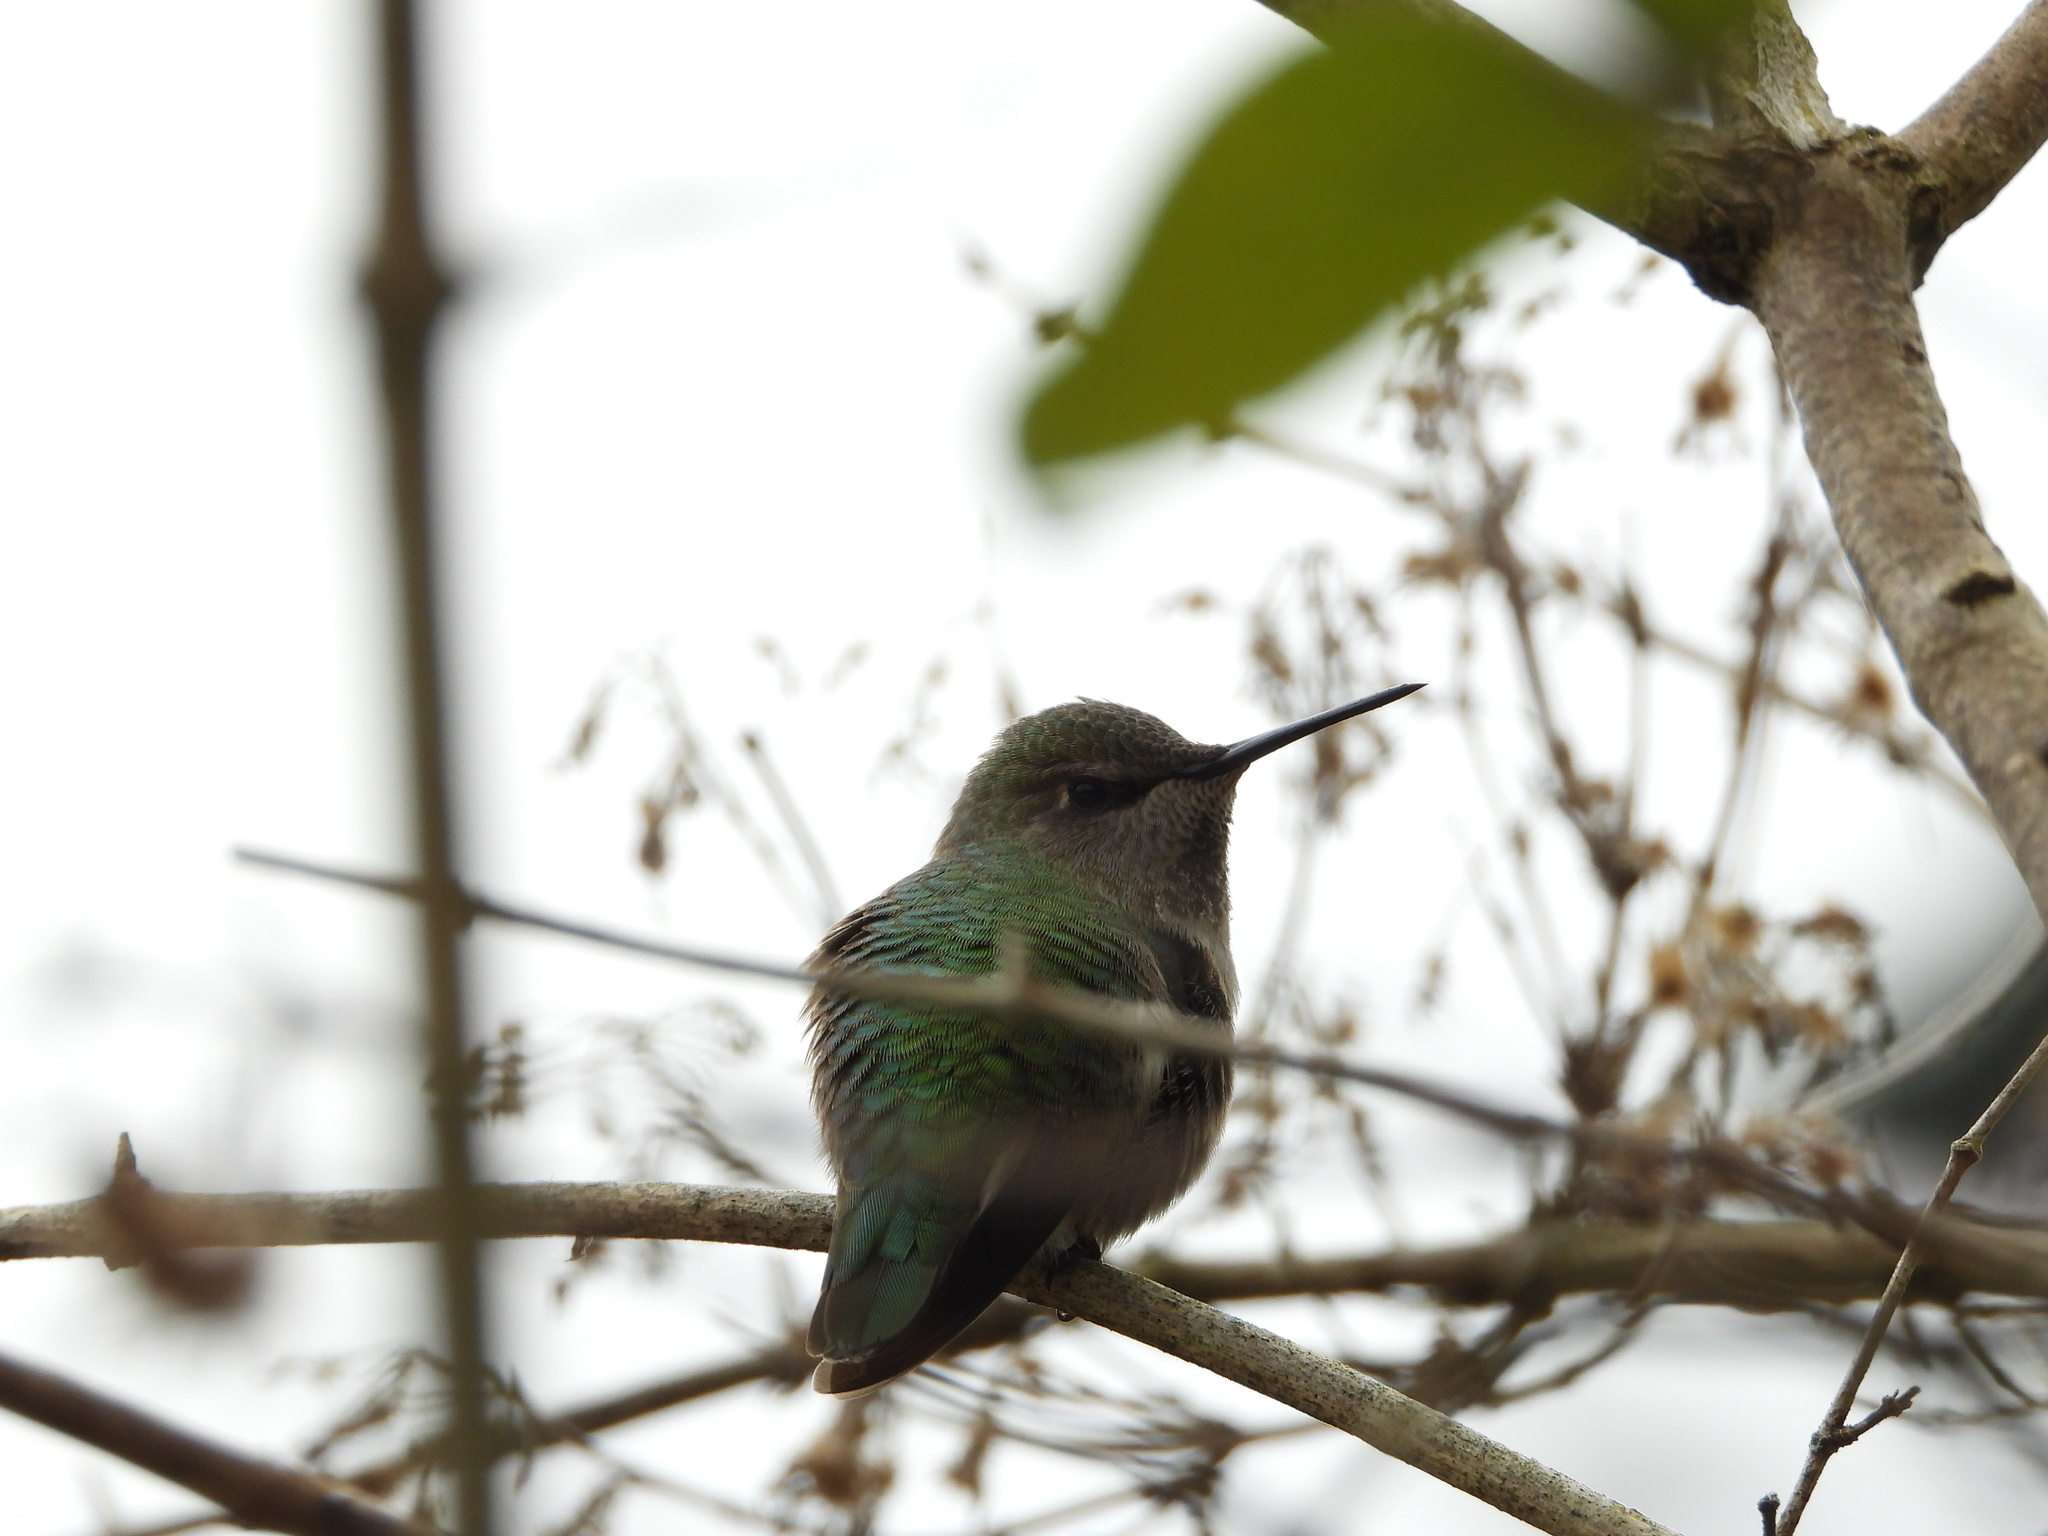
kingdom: Animalia
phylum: Chordata
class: Aves
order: Apodiformes
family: Trochilidae
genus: Calypte
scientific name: Calypte anna
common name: Anna's hummingbird
